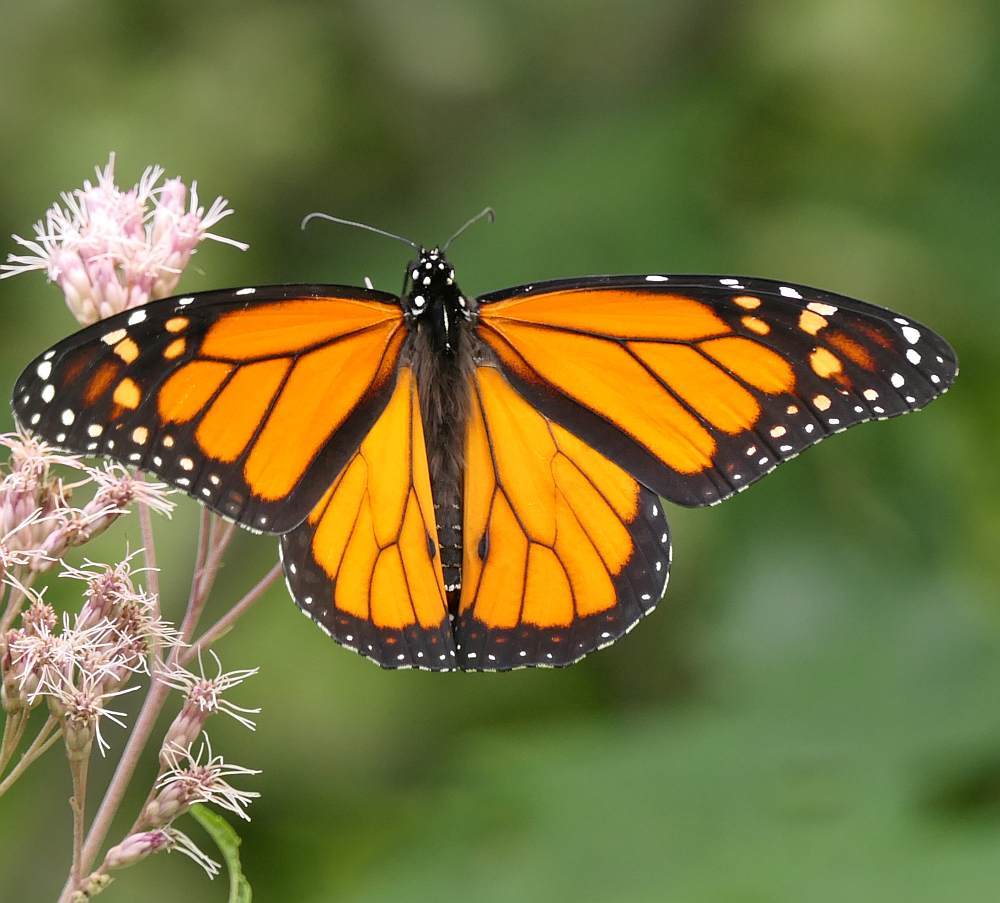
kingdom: Animalia
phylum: Arthropoda
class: Insecta
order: Lepidoptera
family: Nymphalidae
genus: Danaus
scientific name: Danaus plexippus
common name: Monarch
